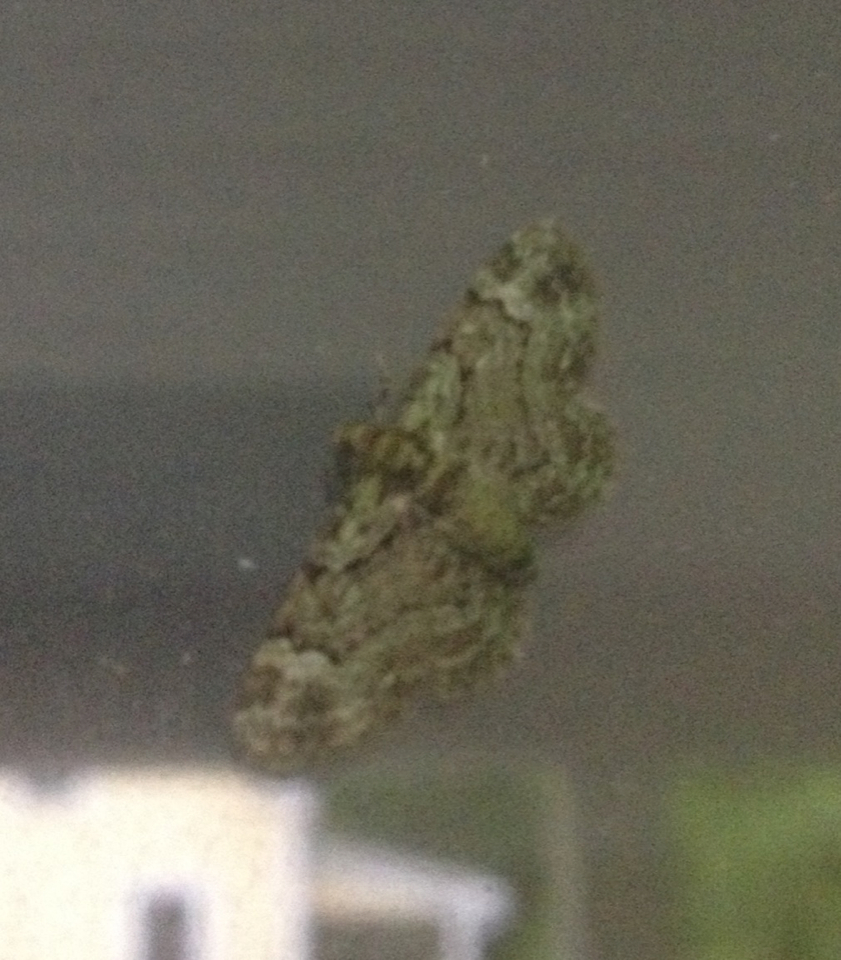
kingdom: Animalia
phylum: Arthropoda
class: Insecta
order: Lepidoptera
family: Geometridae
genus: Pasiphila
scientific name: Pasiphila rectangulata
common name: Green pug
